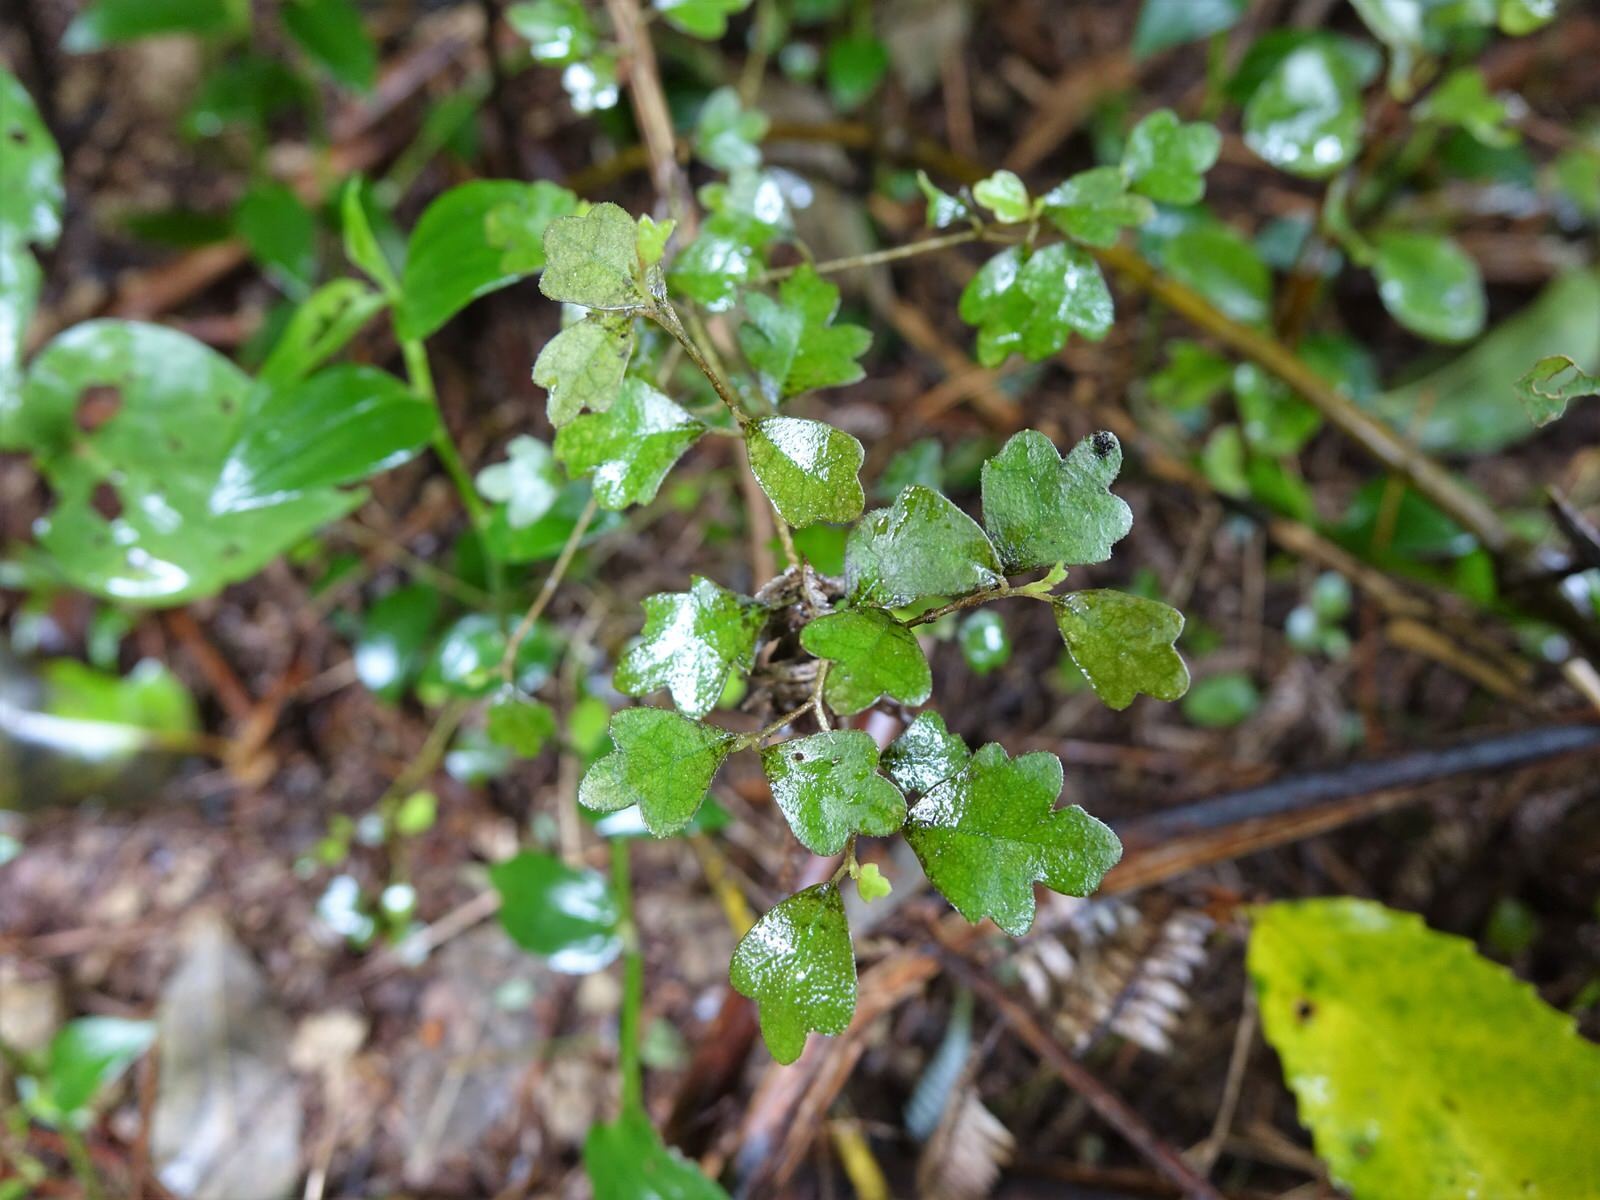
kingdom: Plantae
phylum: Tracheophyta
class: Magnoliopsida
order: Apiales
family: Pennantiaceae
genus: Pennantia
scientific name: Pennantia corymbosa
